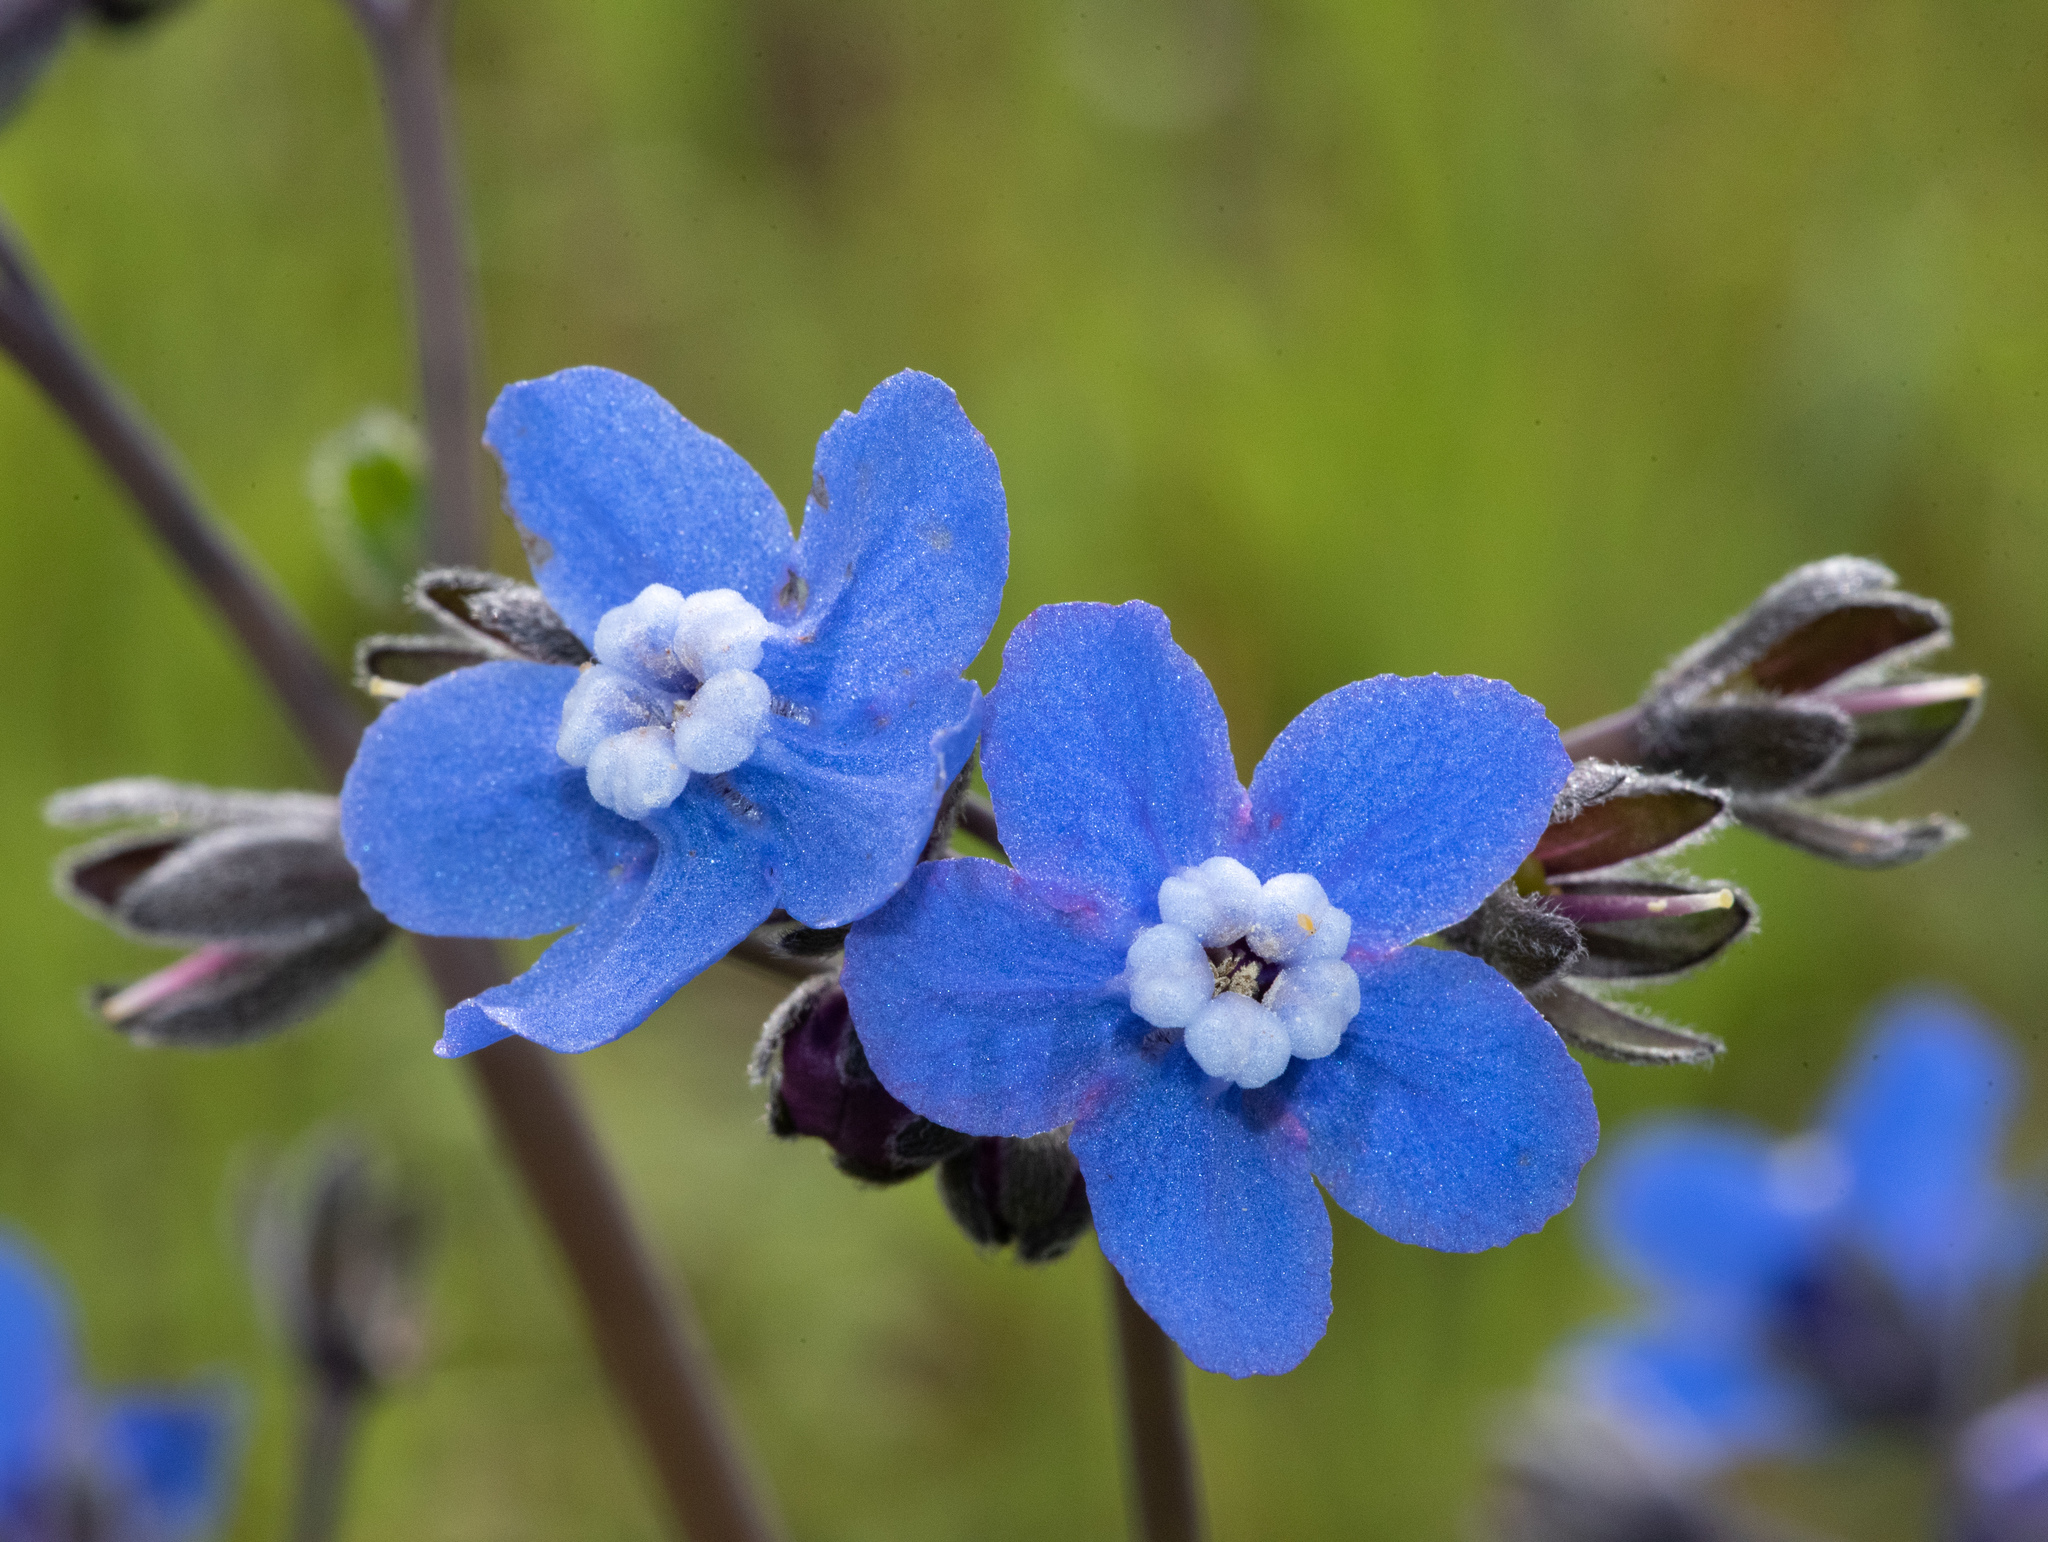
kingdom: Plantae
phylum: Tracheophyta
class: Magnoliopsida
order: Boraginales
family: Boraginaceae
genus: Adelinia
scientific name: Adelinia grande
